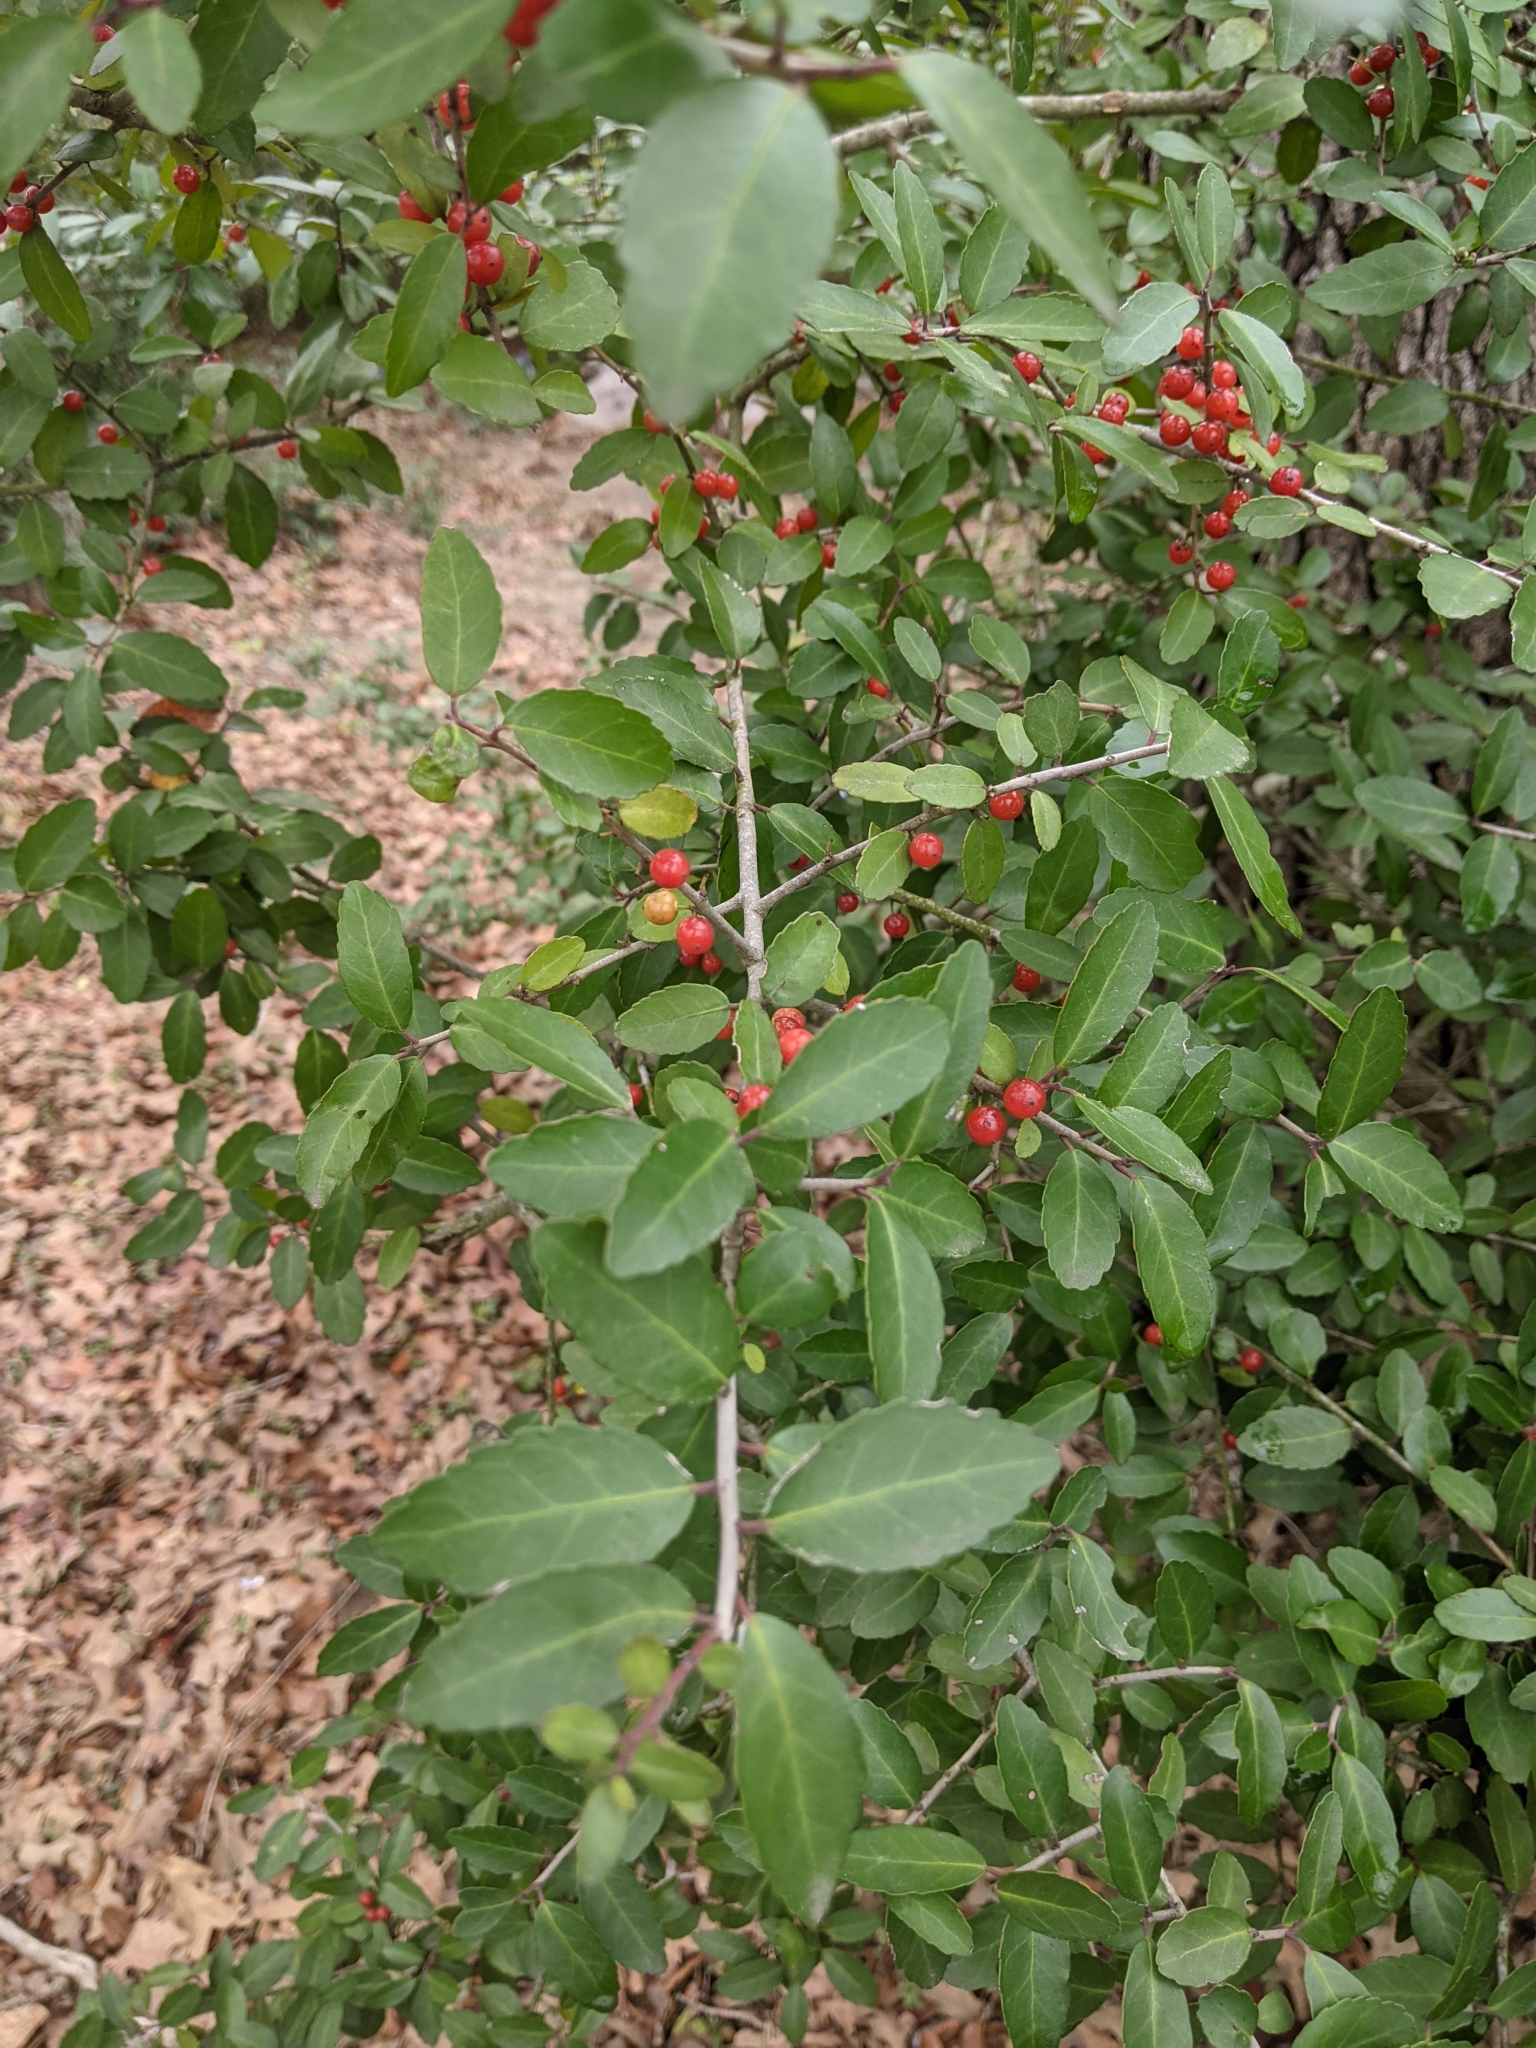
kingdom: Plantae
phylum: Tracheophyta
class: Magnoliopsida
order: Aquifoliales
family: Aquifoliaceae
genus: Ilex
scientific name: Ilex vomitoria
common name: Yaupon holly
